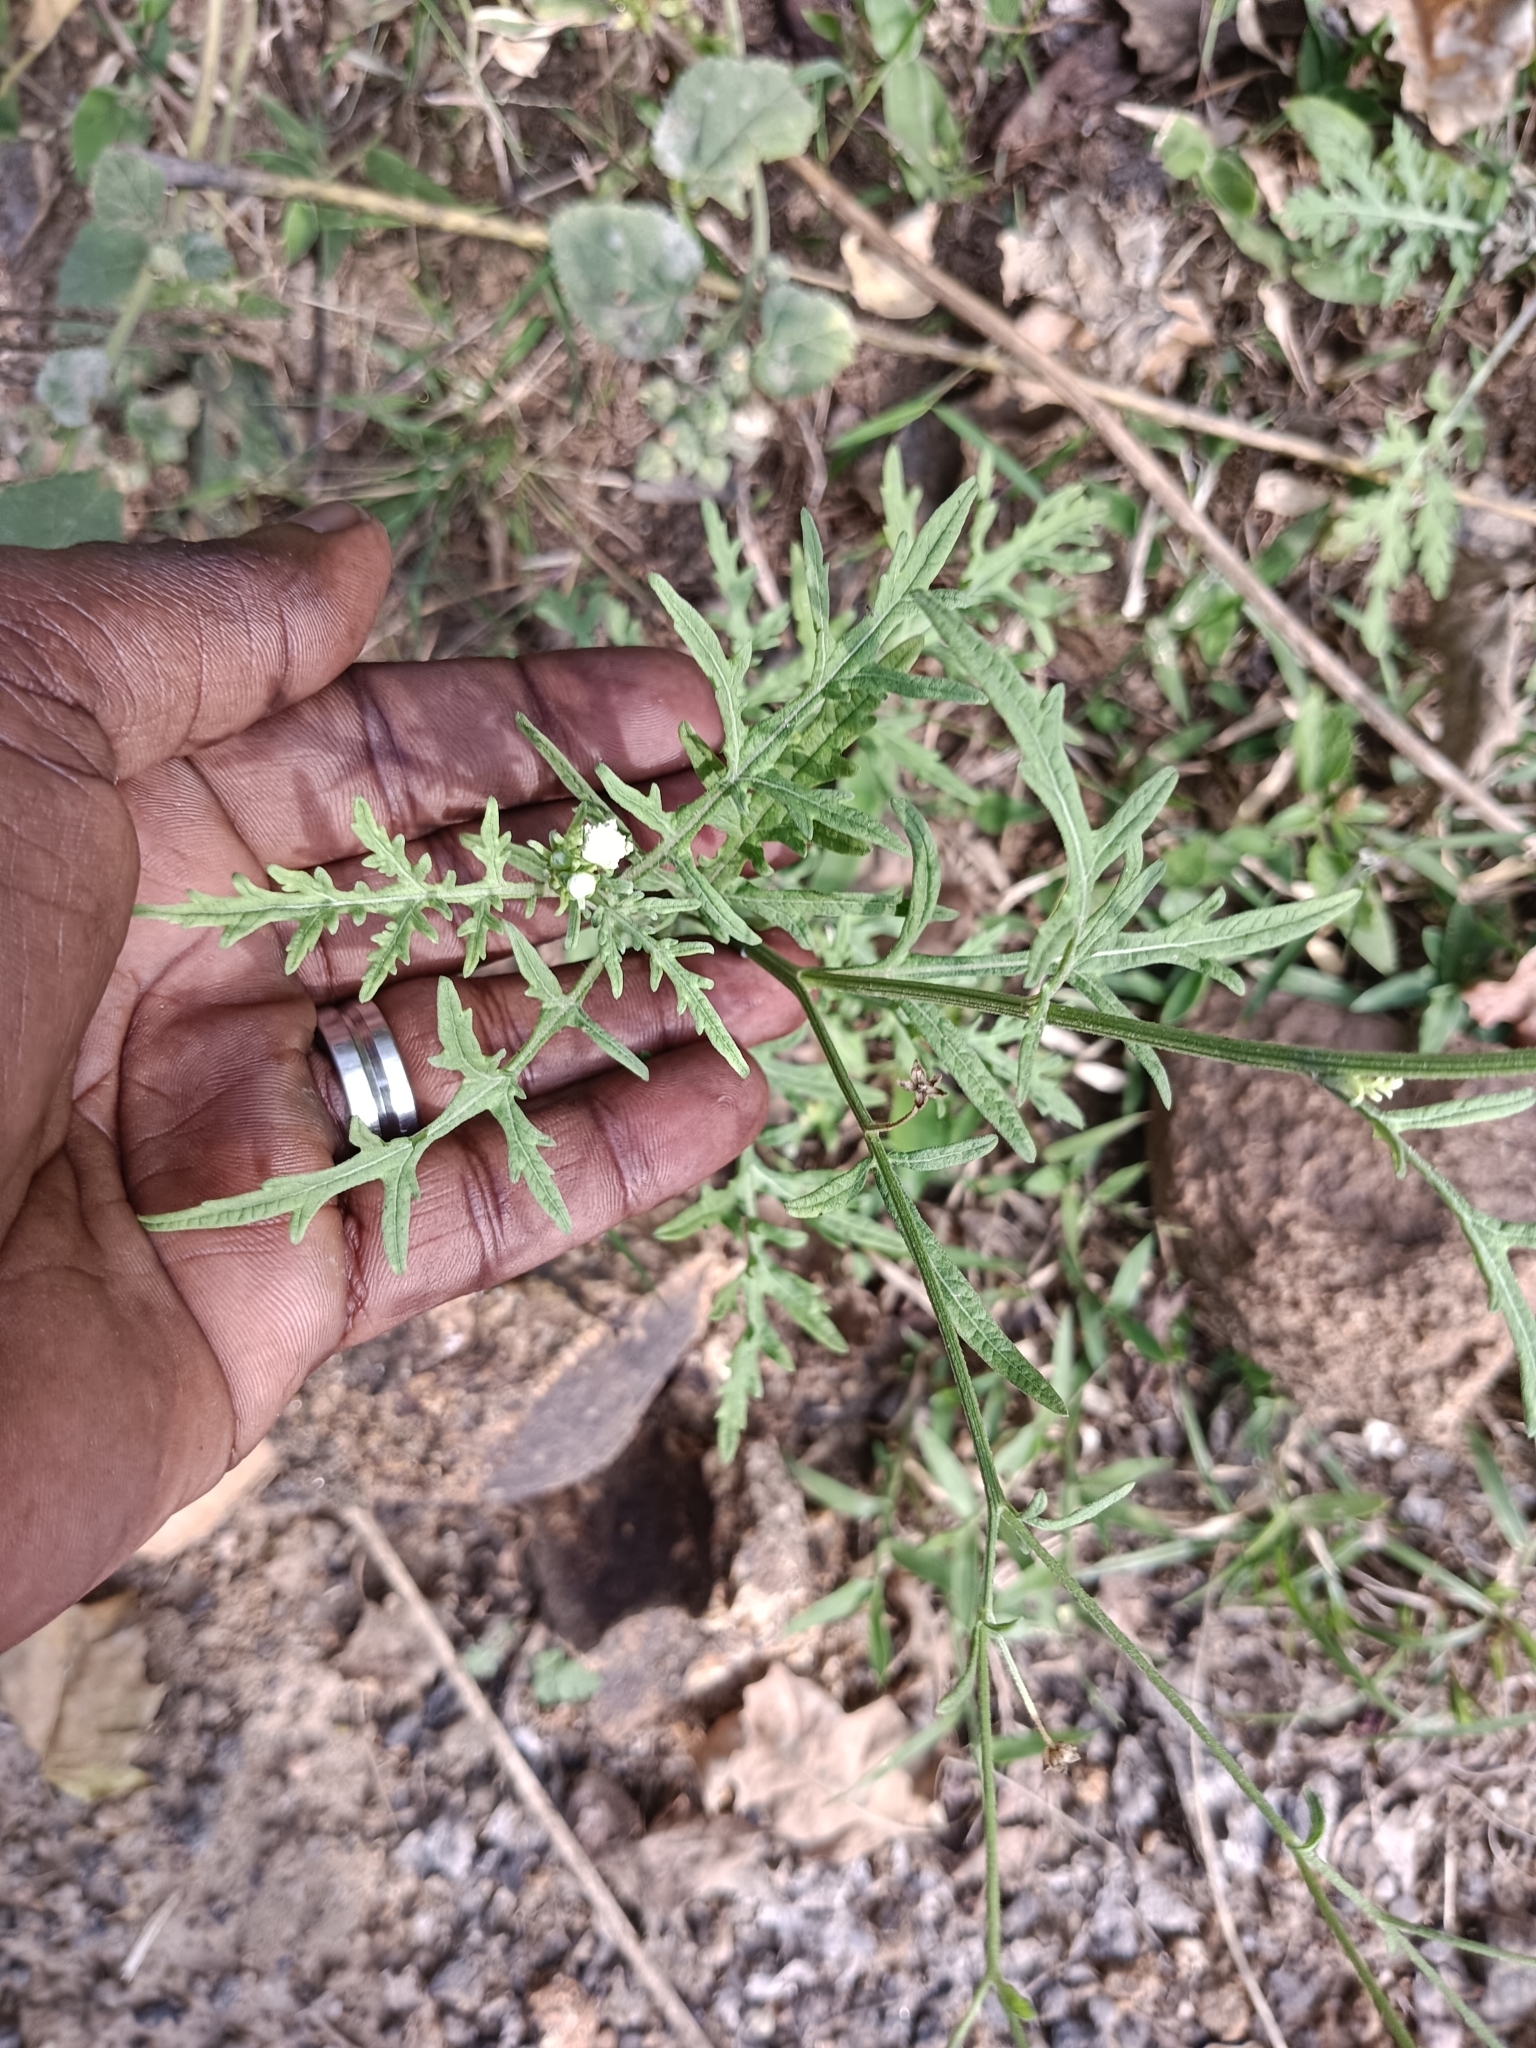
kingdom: Plantae
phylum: Tracheophyta
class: Magnoliopsida
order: Asterales
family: Asteraceae
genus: Parthenium
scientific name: Parthenium hysterophorus
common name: Santa maria feverfew
